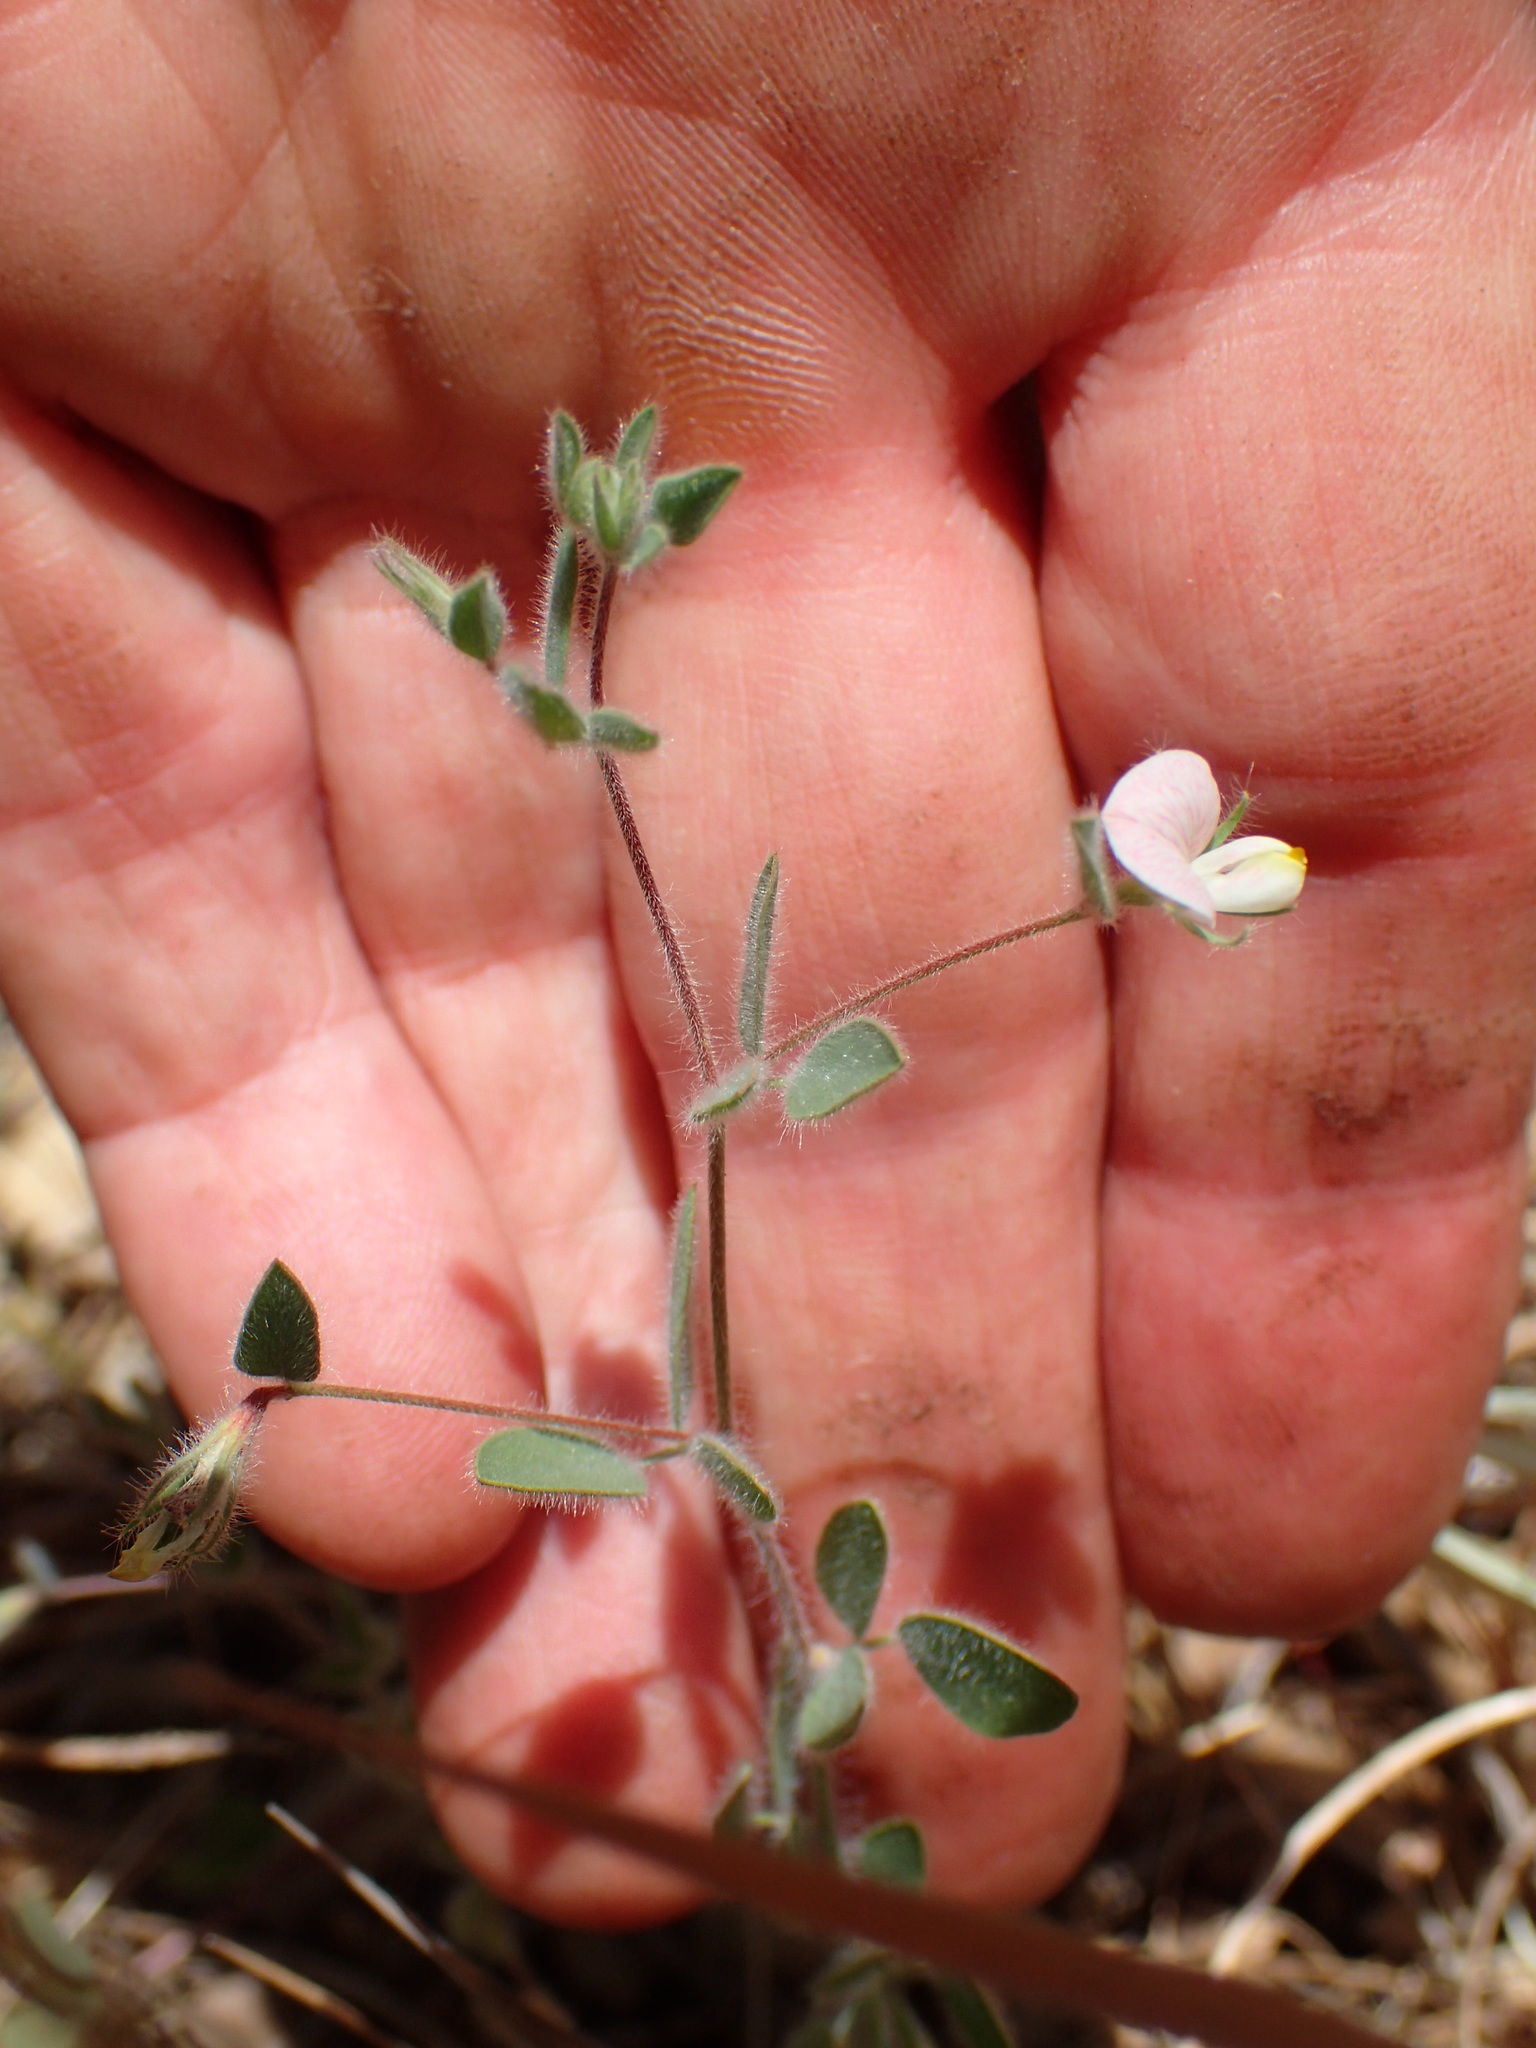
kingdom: Plantae
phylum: Tracheophyta
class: Magnoliopsida
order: Fabales
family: Fabaceae
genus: Acmispon
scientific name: Acmispon americanus
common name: American bird's-foot trefoil
